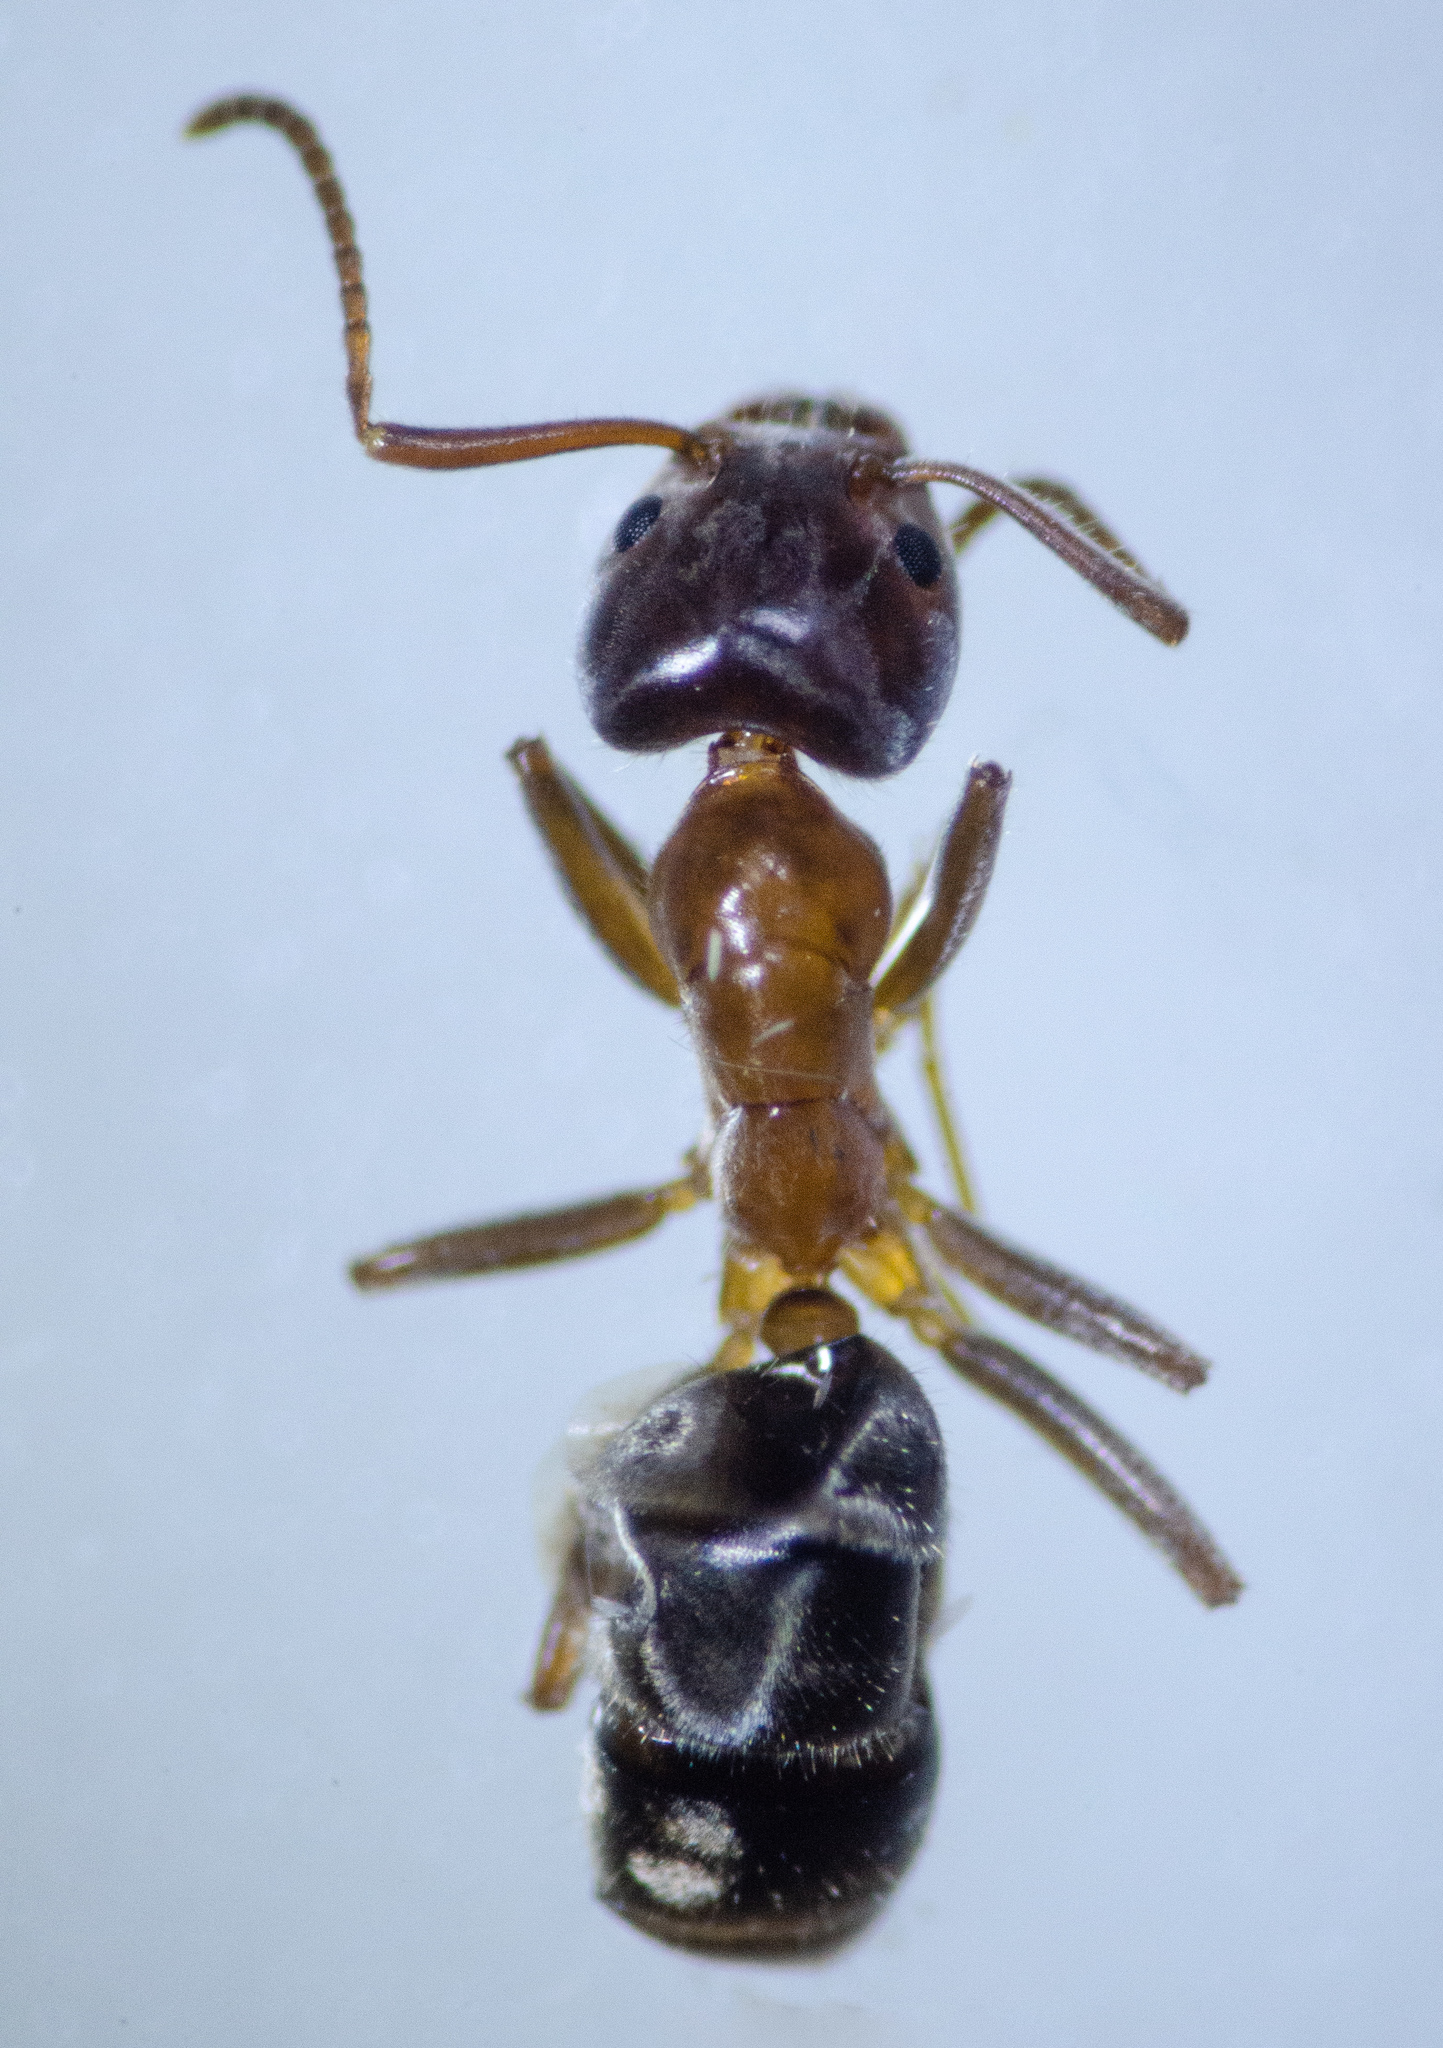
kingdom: Animalia
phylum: Arthropoda
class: Insecta
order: Hymenoptera
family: Formicidae
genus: Liometopum
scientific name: Liometopum occidentale
